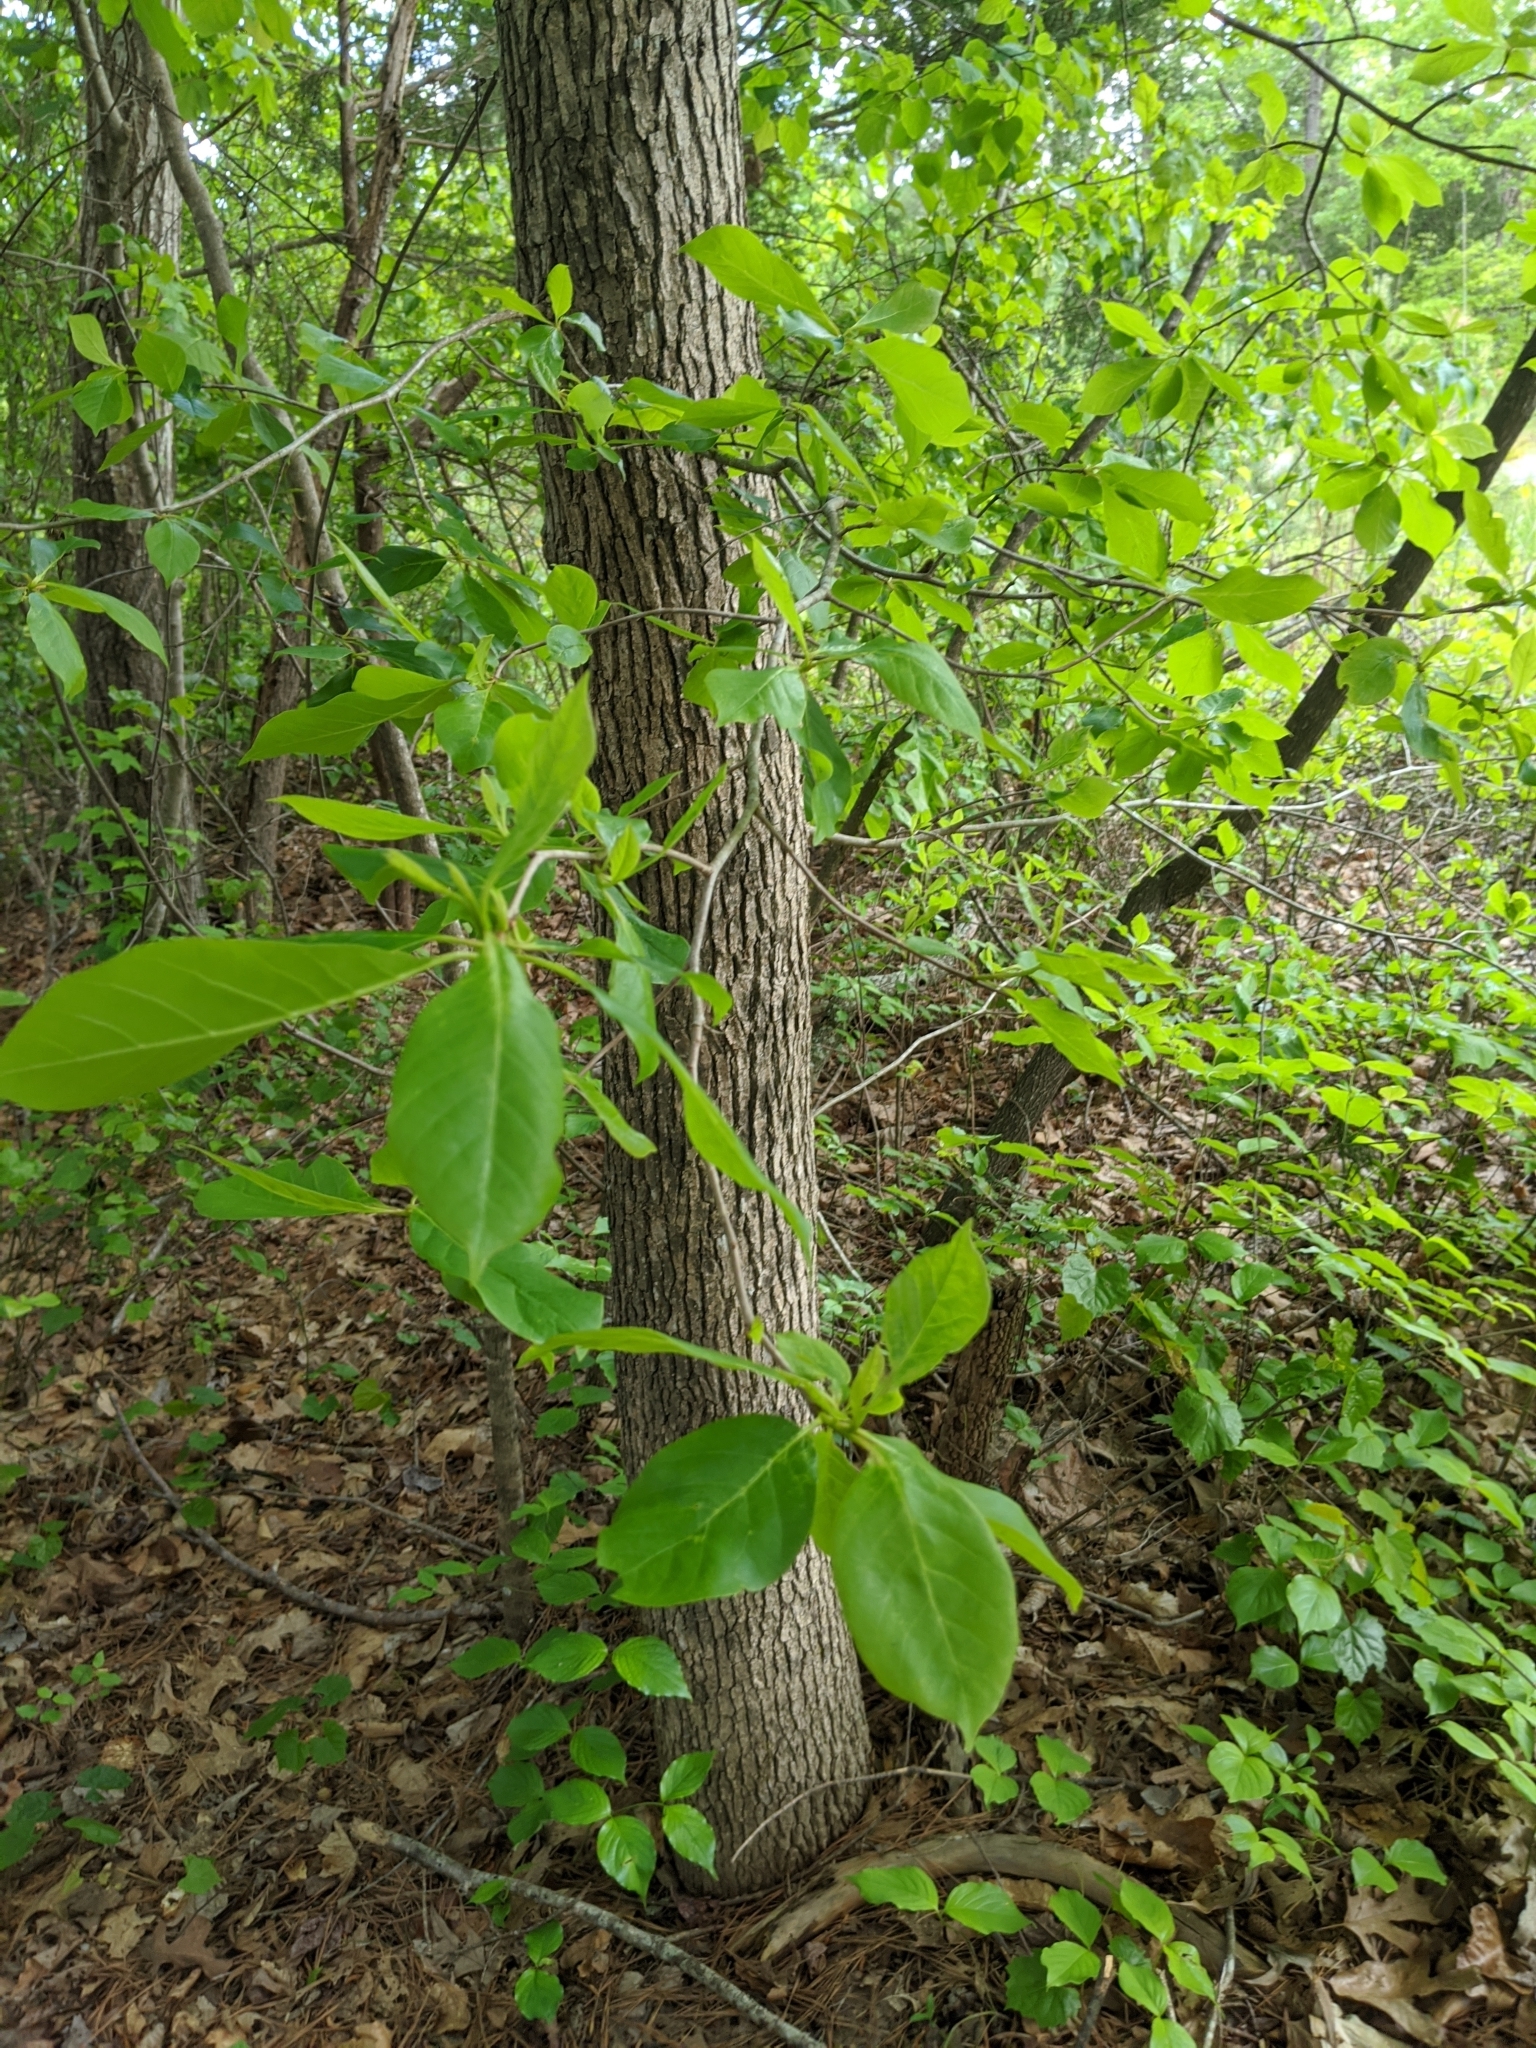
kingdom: Plantae
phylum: Tracheophyta
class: Magnoliopsida
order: Cornales
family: Nyssaceae
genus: Nyssa
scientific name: Nyssa sylvatica
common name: Black tupelo
